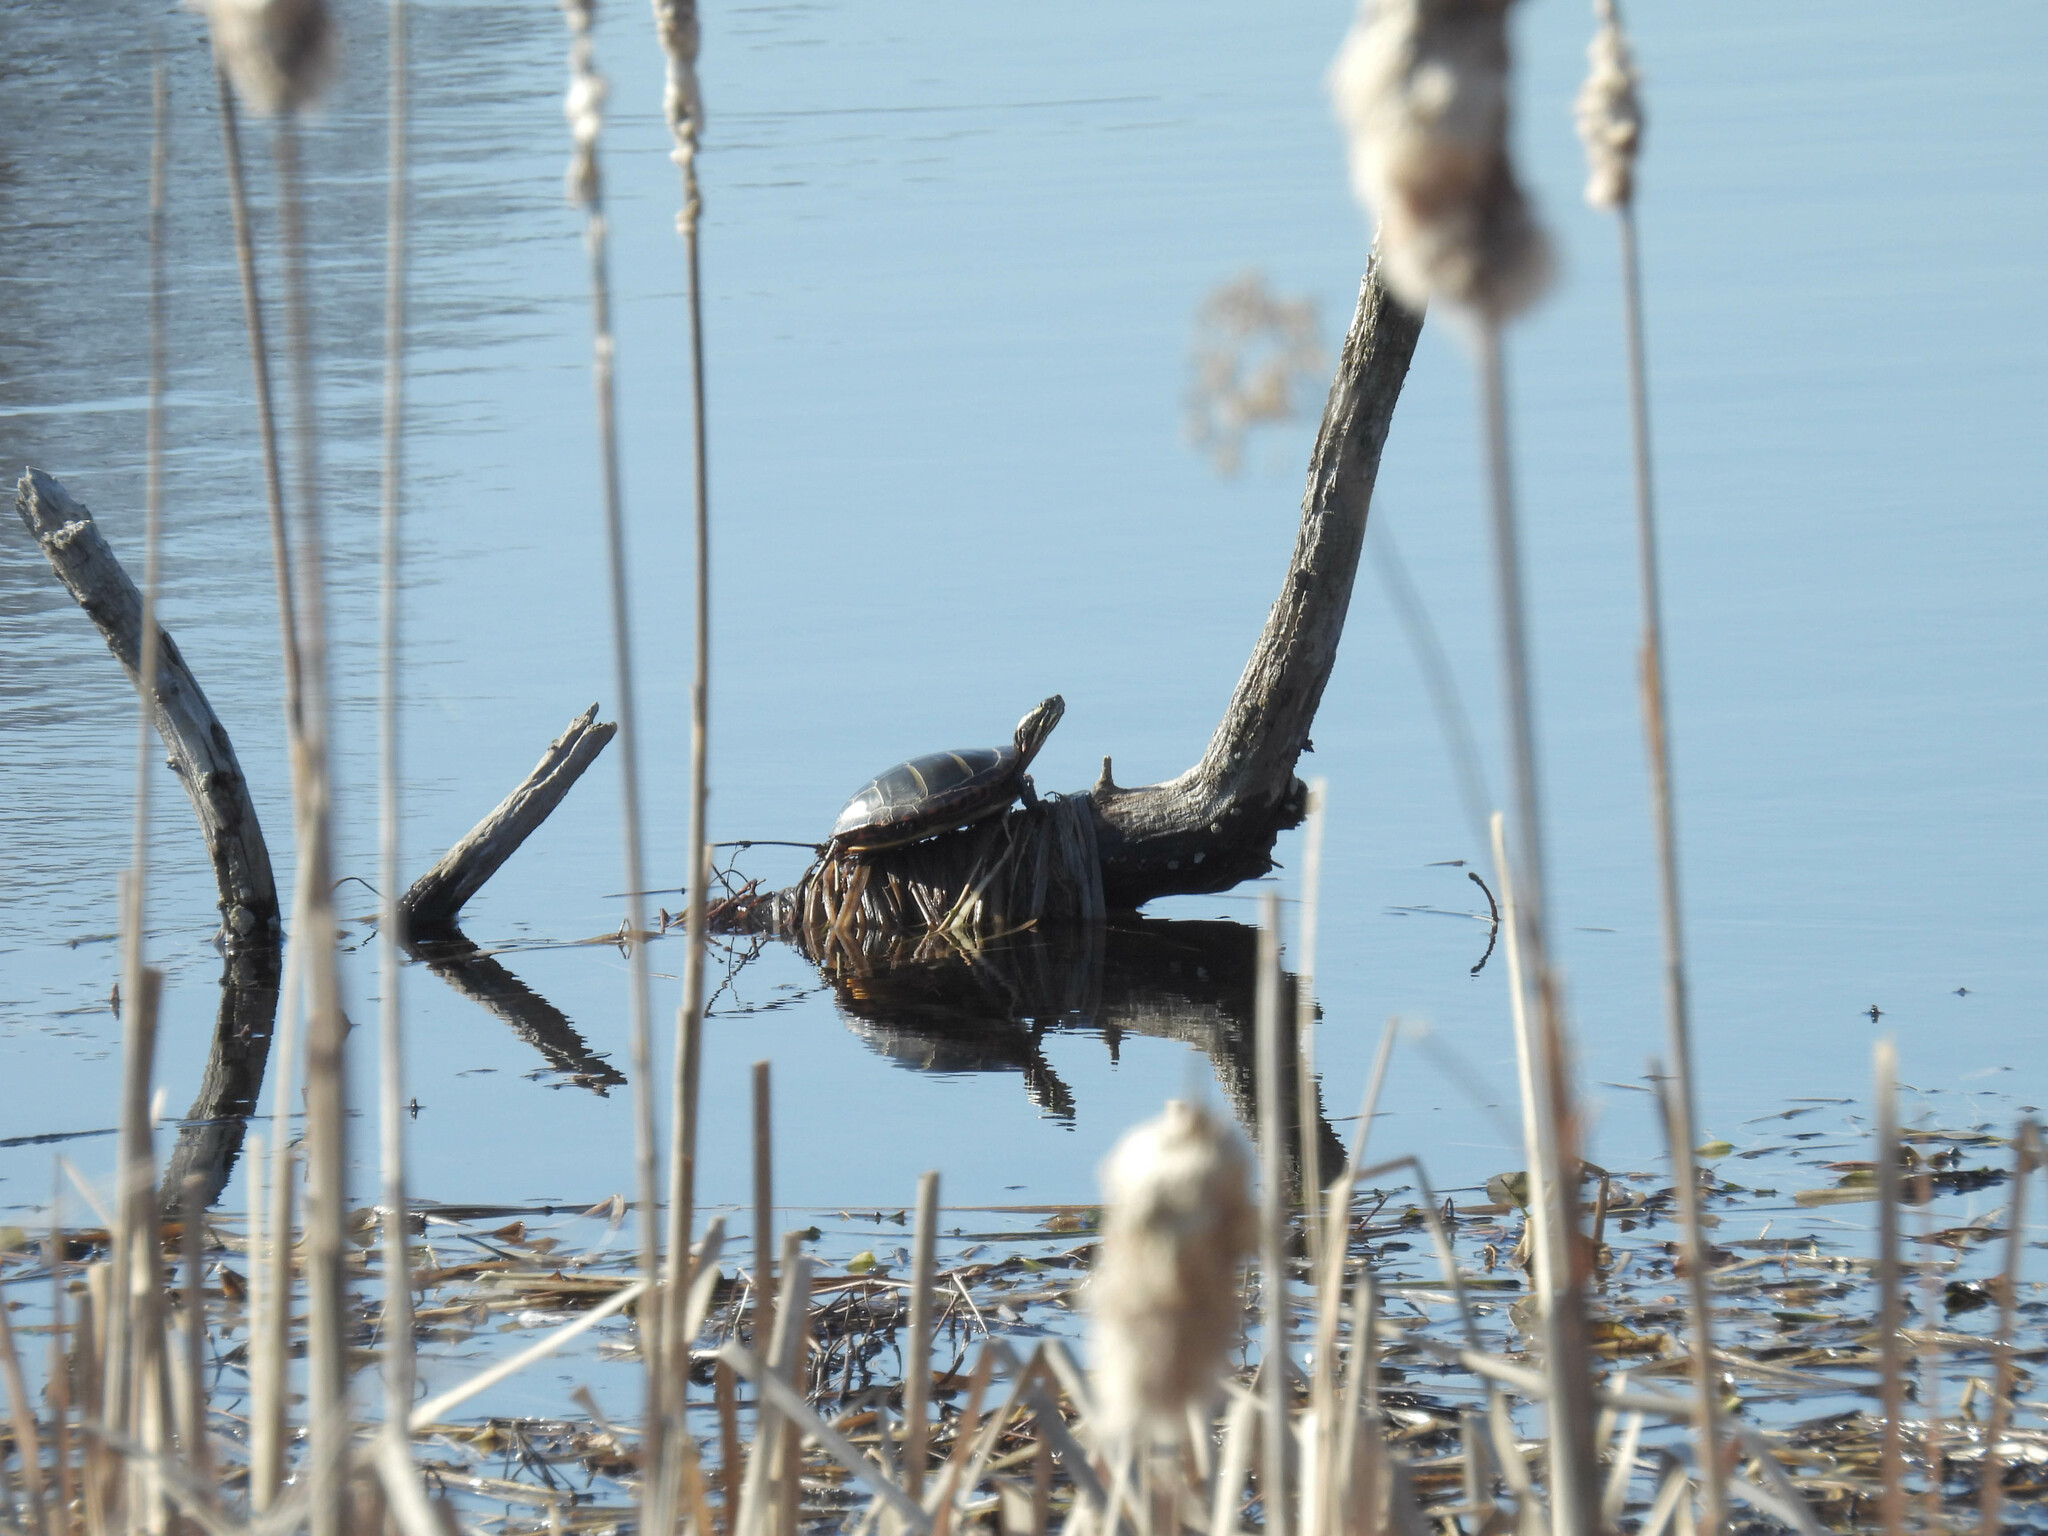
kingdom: Animalia
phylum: Chordata
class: Testudines
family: Emydidae
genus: Chrysemys
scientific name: Chrysemys picta
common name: Painted turtle
